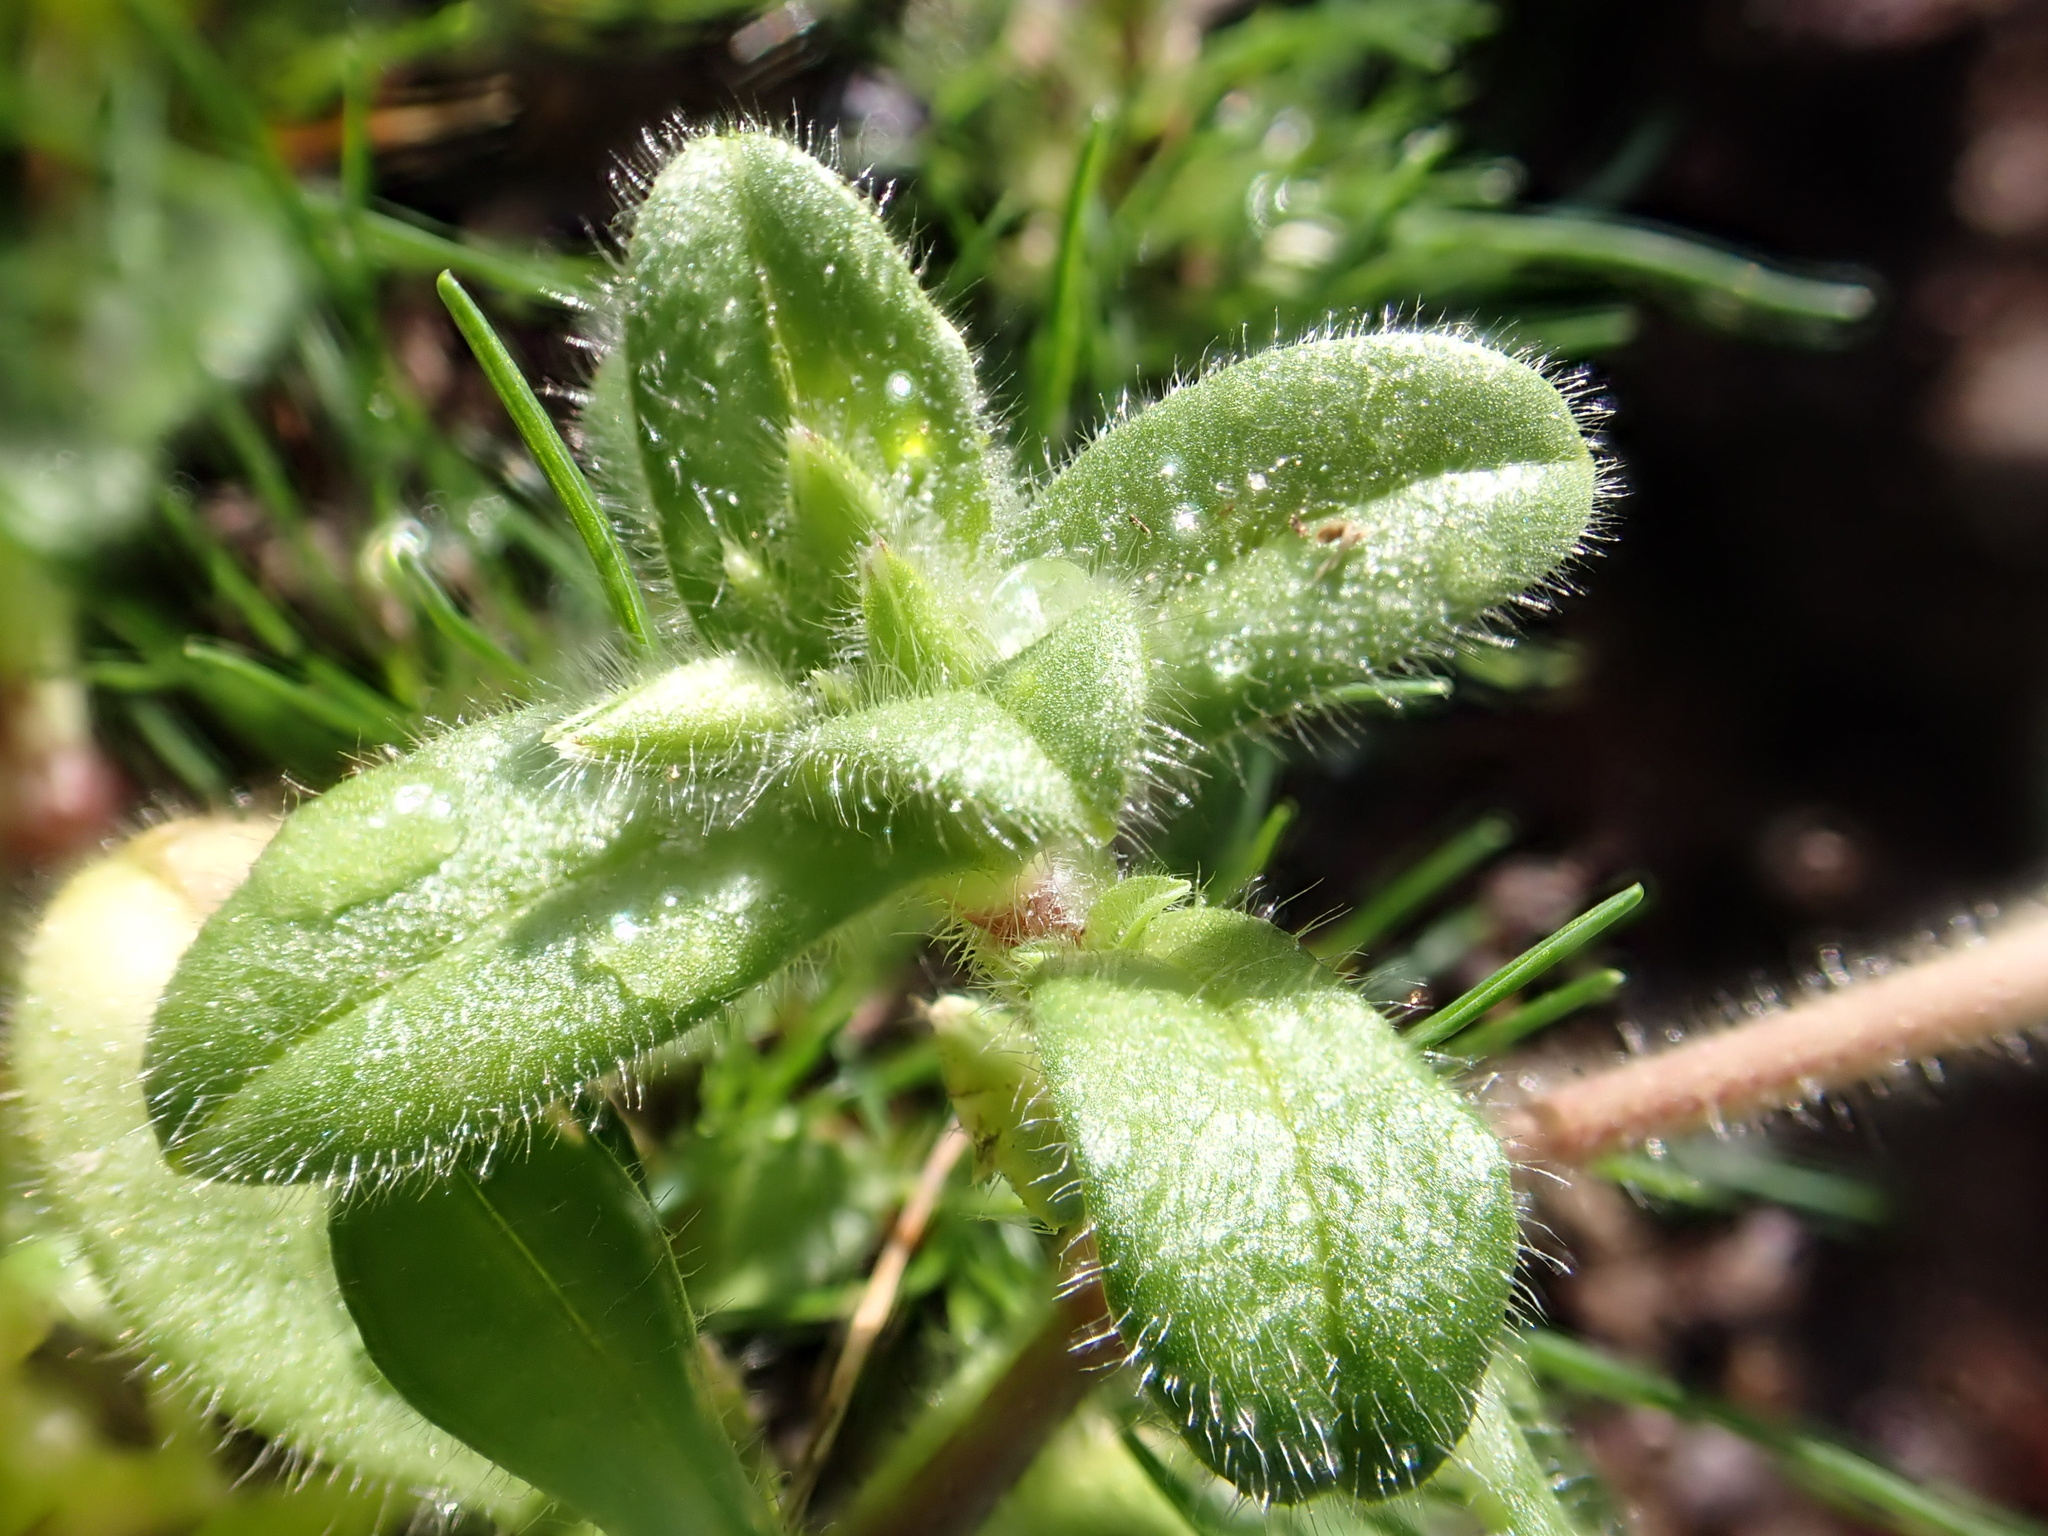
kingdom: Plantae
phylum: Tracheophyta
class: Magnoliopsida
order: Caryophyllales
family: Caryophyllaceae
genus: Cerastium
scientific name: Cerastium glomeratum
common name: Sticky chickweed
